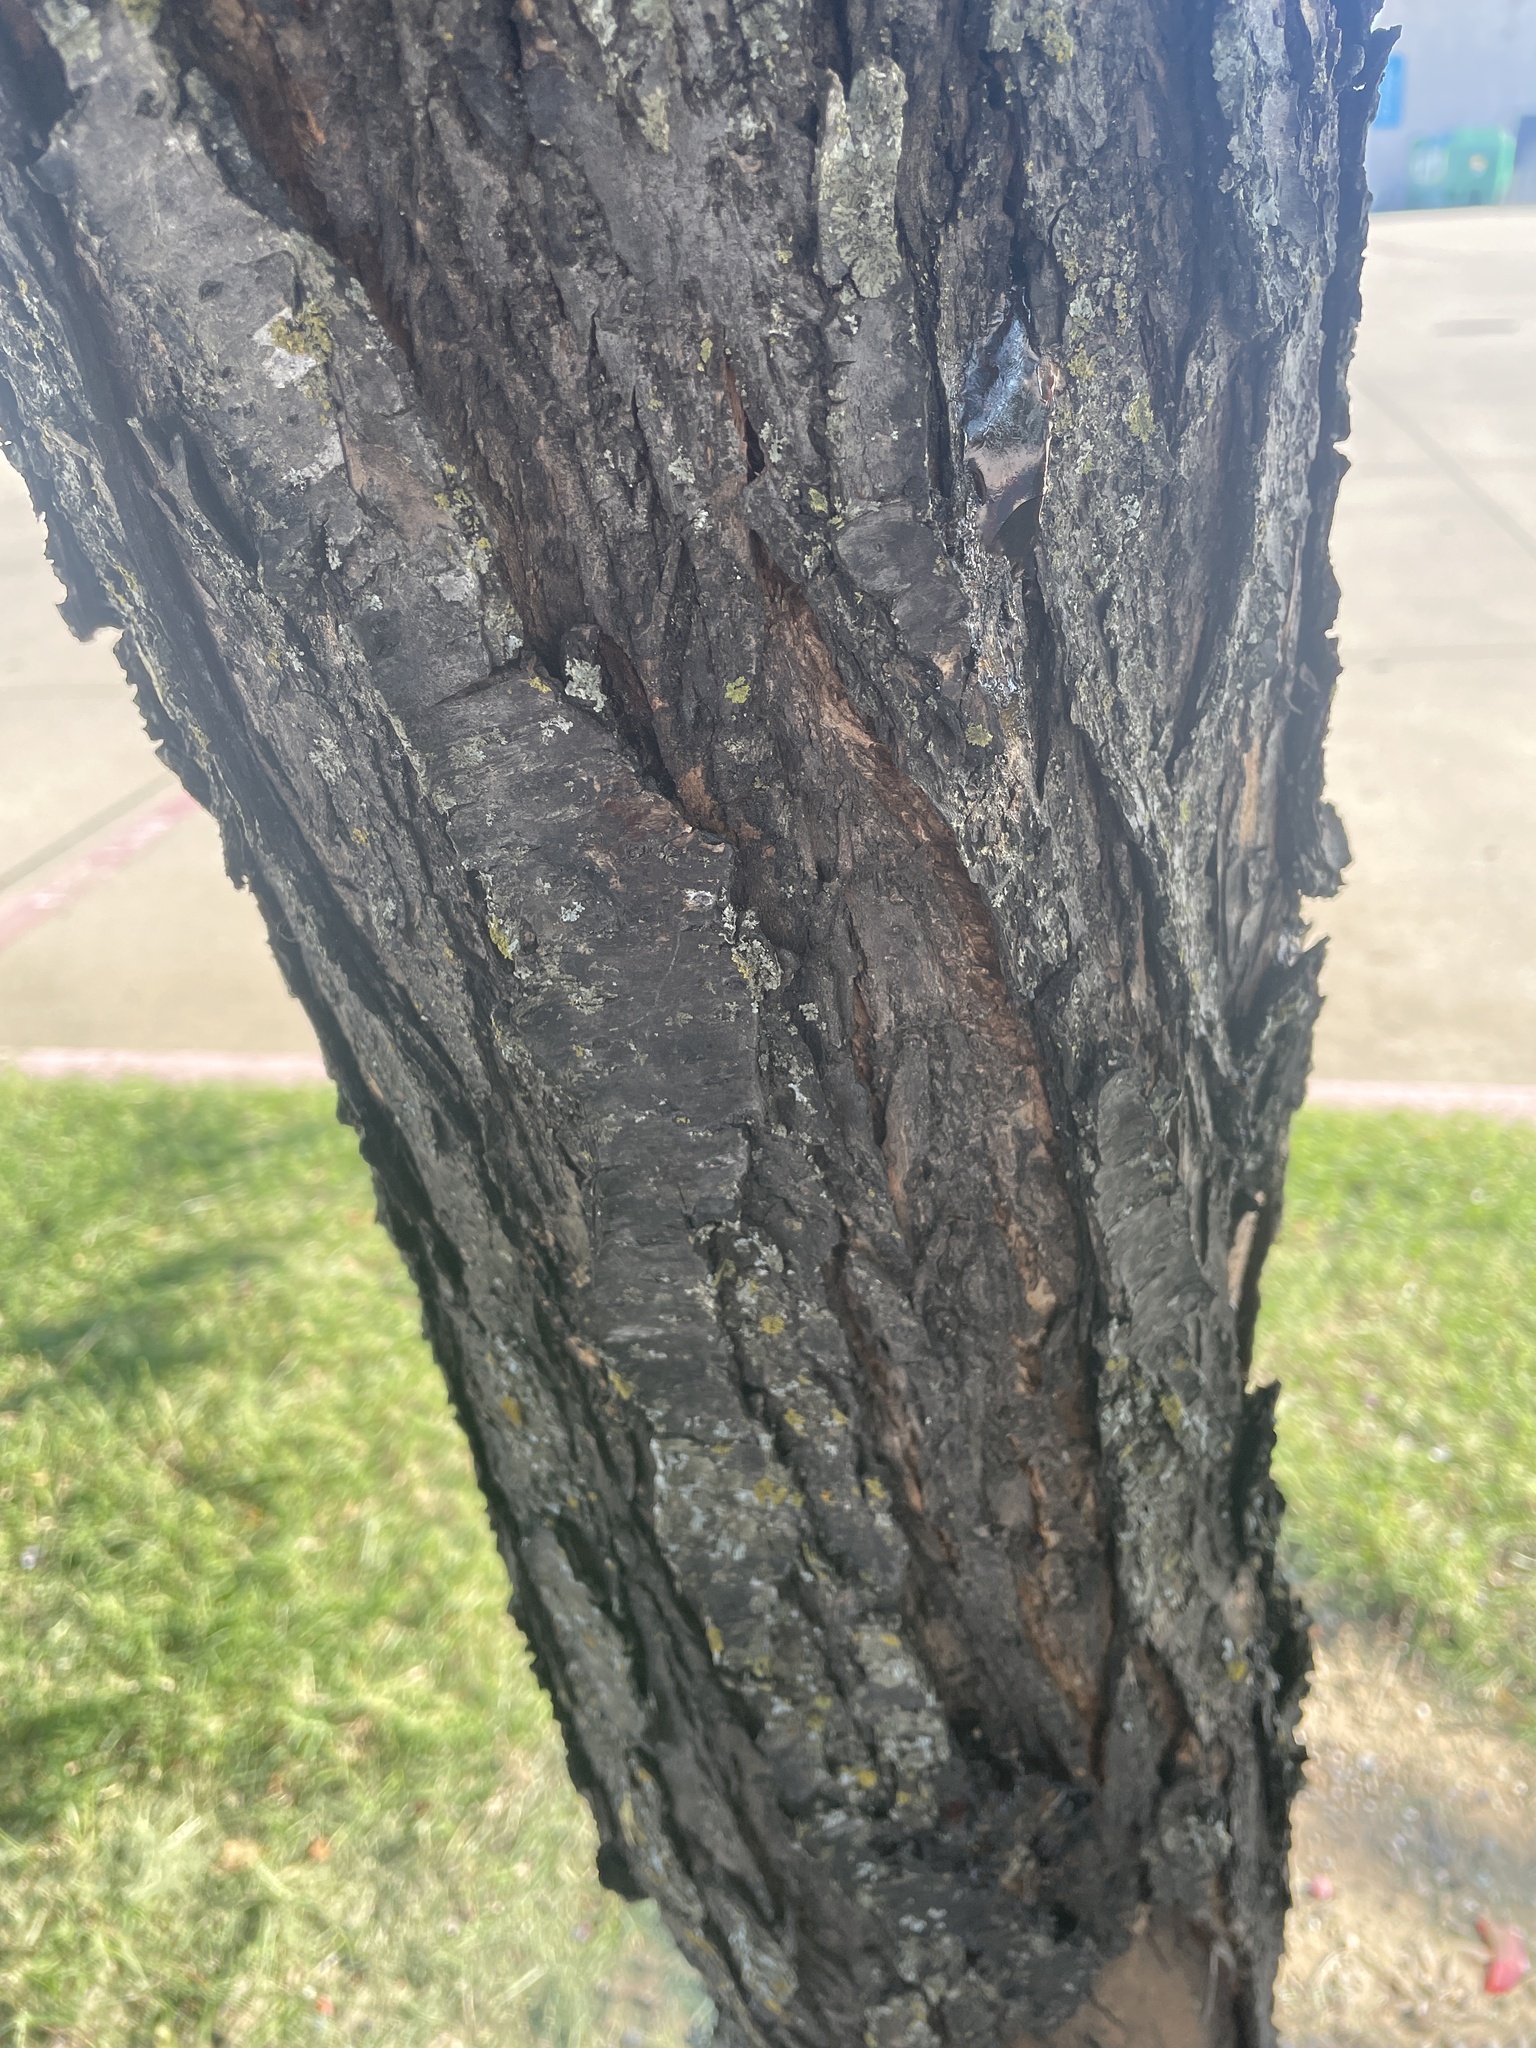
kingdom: Plantae
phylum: Tracheophyta
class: Magnoliopsida
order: Rosales
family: Rosaceae
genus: Prunus
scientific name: Prunus mexicana
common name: Mexican plum
